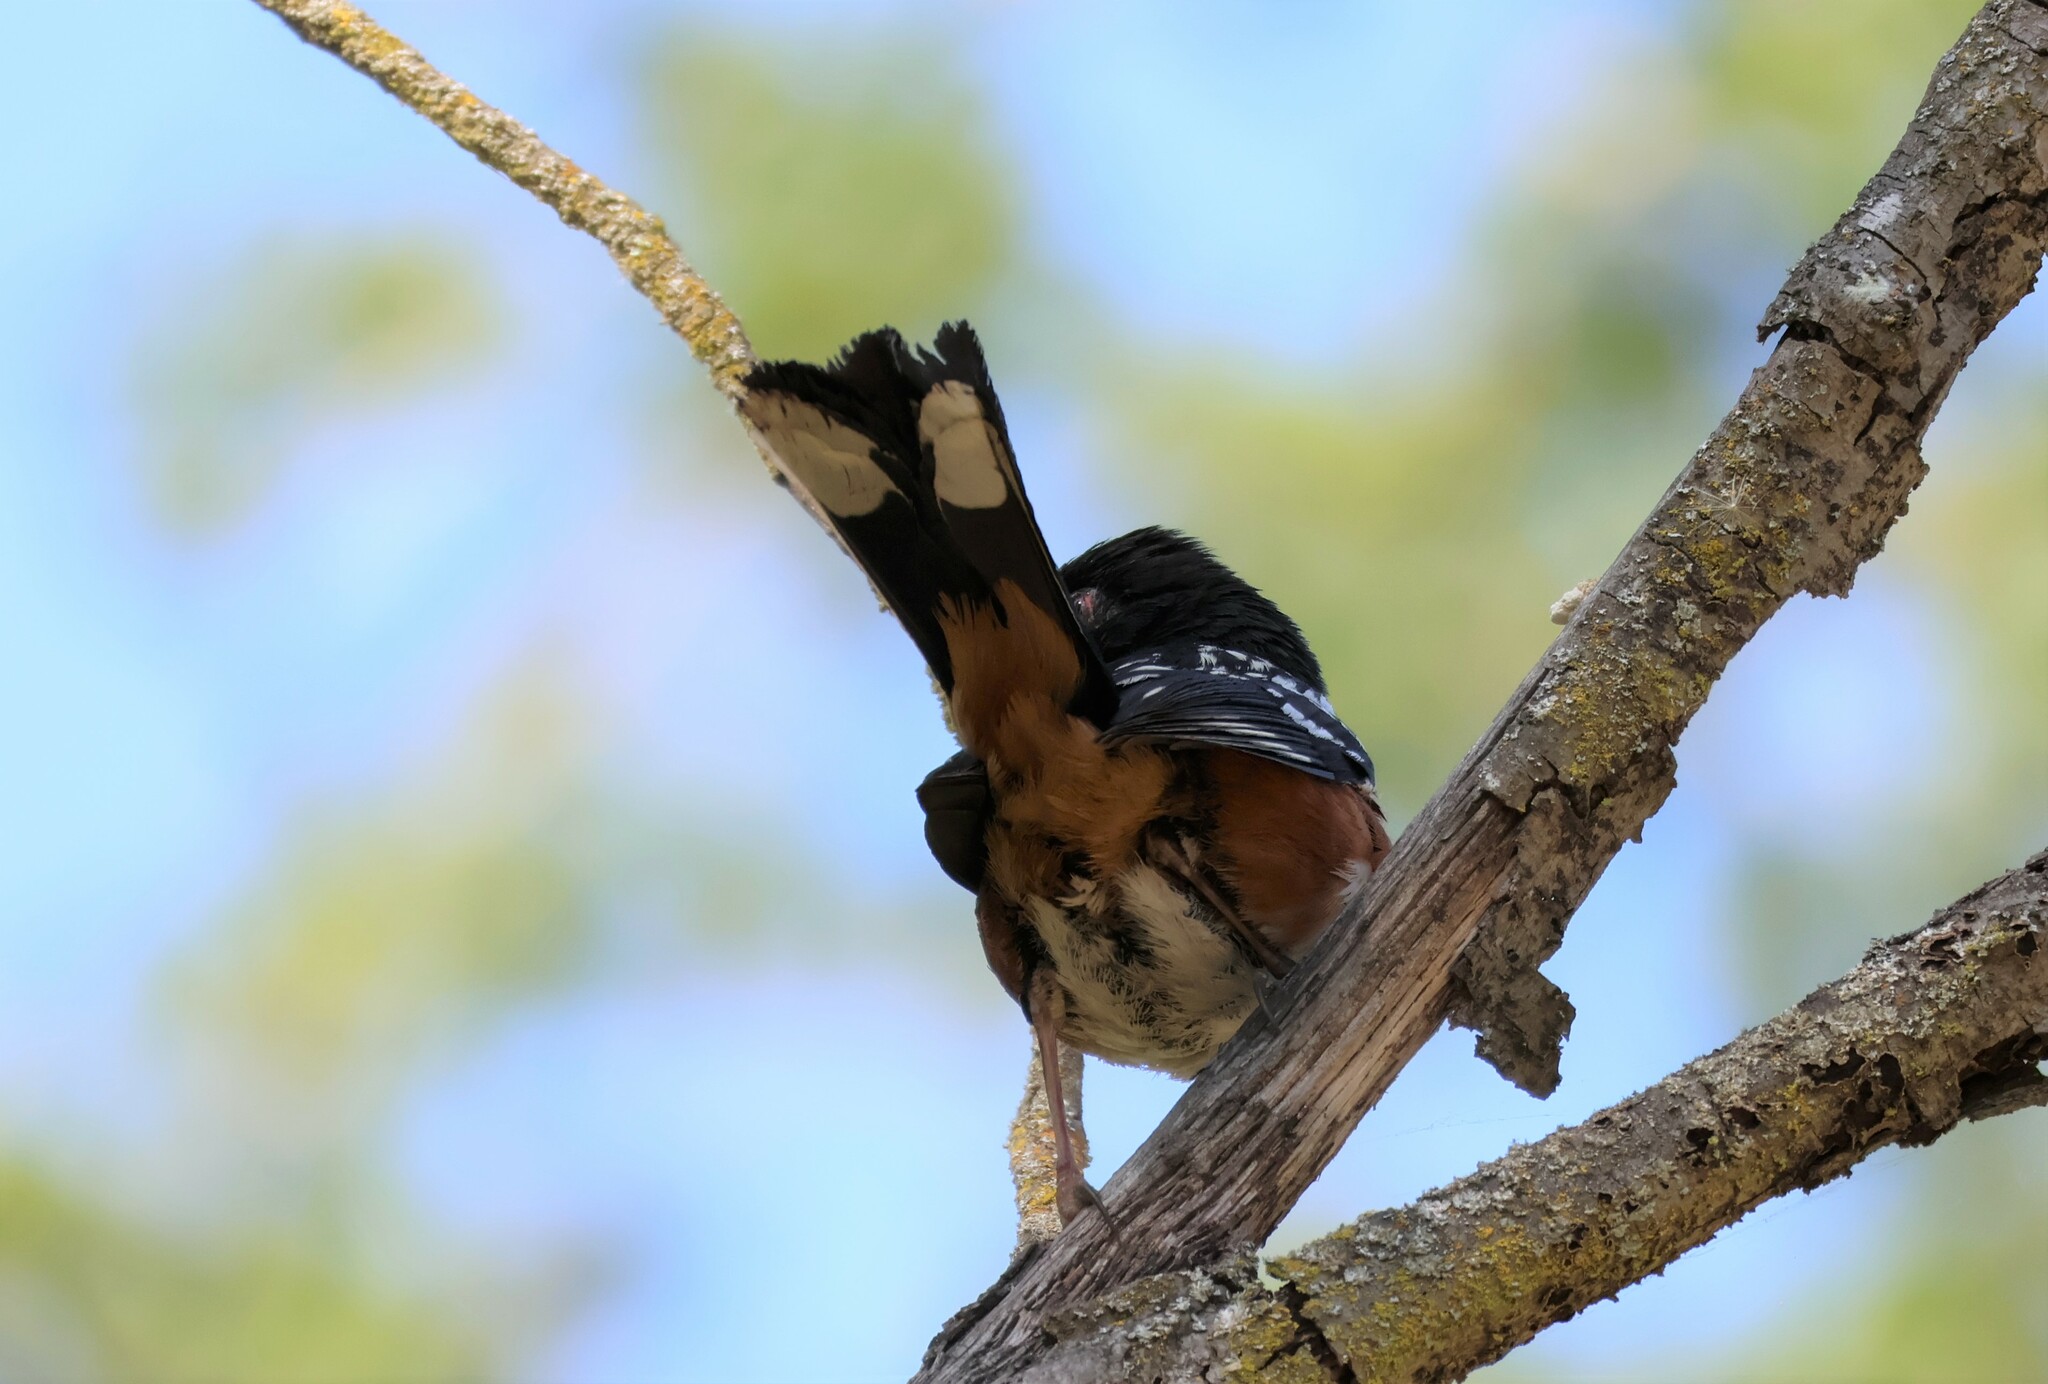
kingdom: Animalia
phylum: Chordata
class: Aves
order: Passeriformes
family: Passerellidae
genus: Pipilo
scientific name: Pipilo maculatus
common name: Spotted towhee
